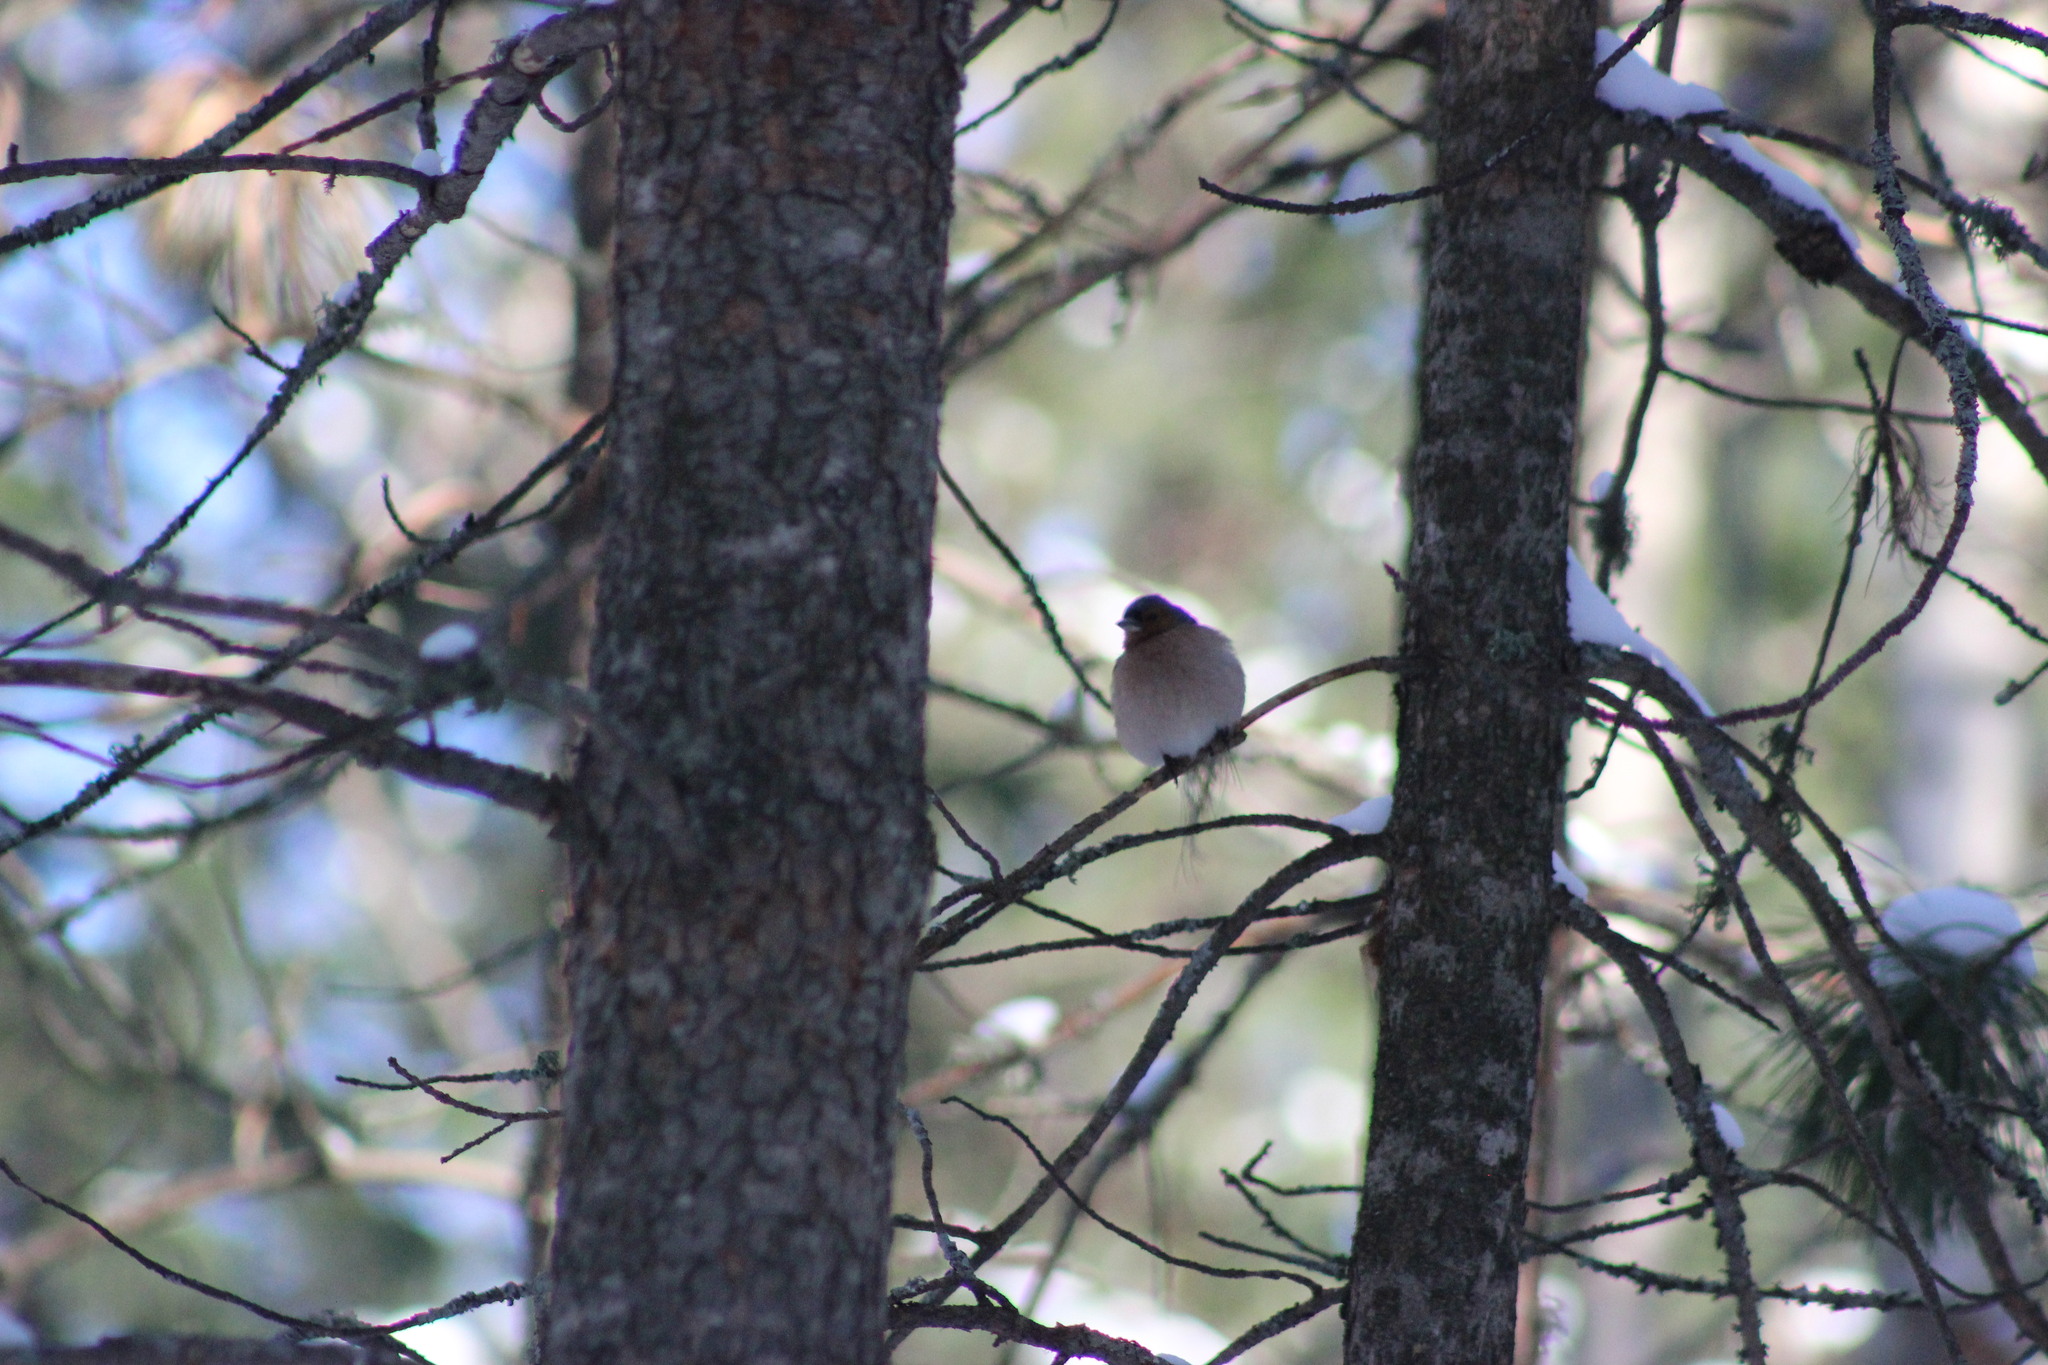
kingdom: Animalia
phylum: Chordata
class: Aves
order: Passeriformes
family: Fringillidae
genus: Fringilla
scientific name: Fringilla coelebs
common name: Common chaffinch
